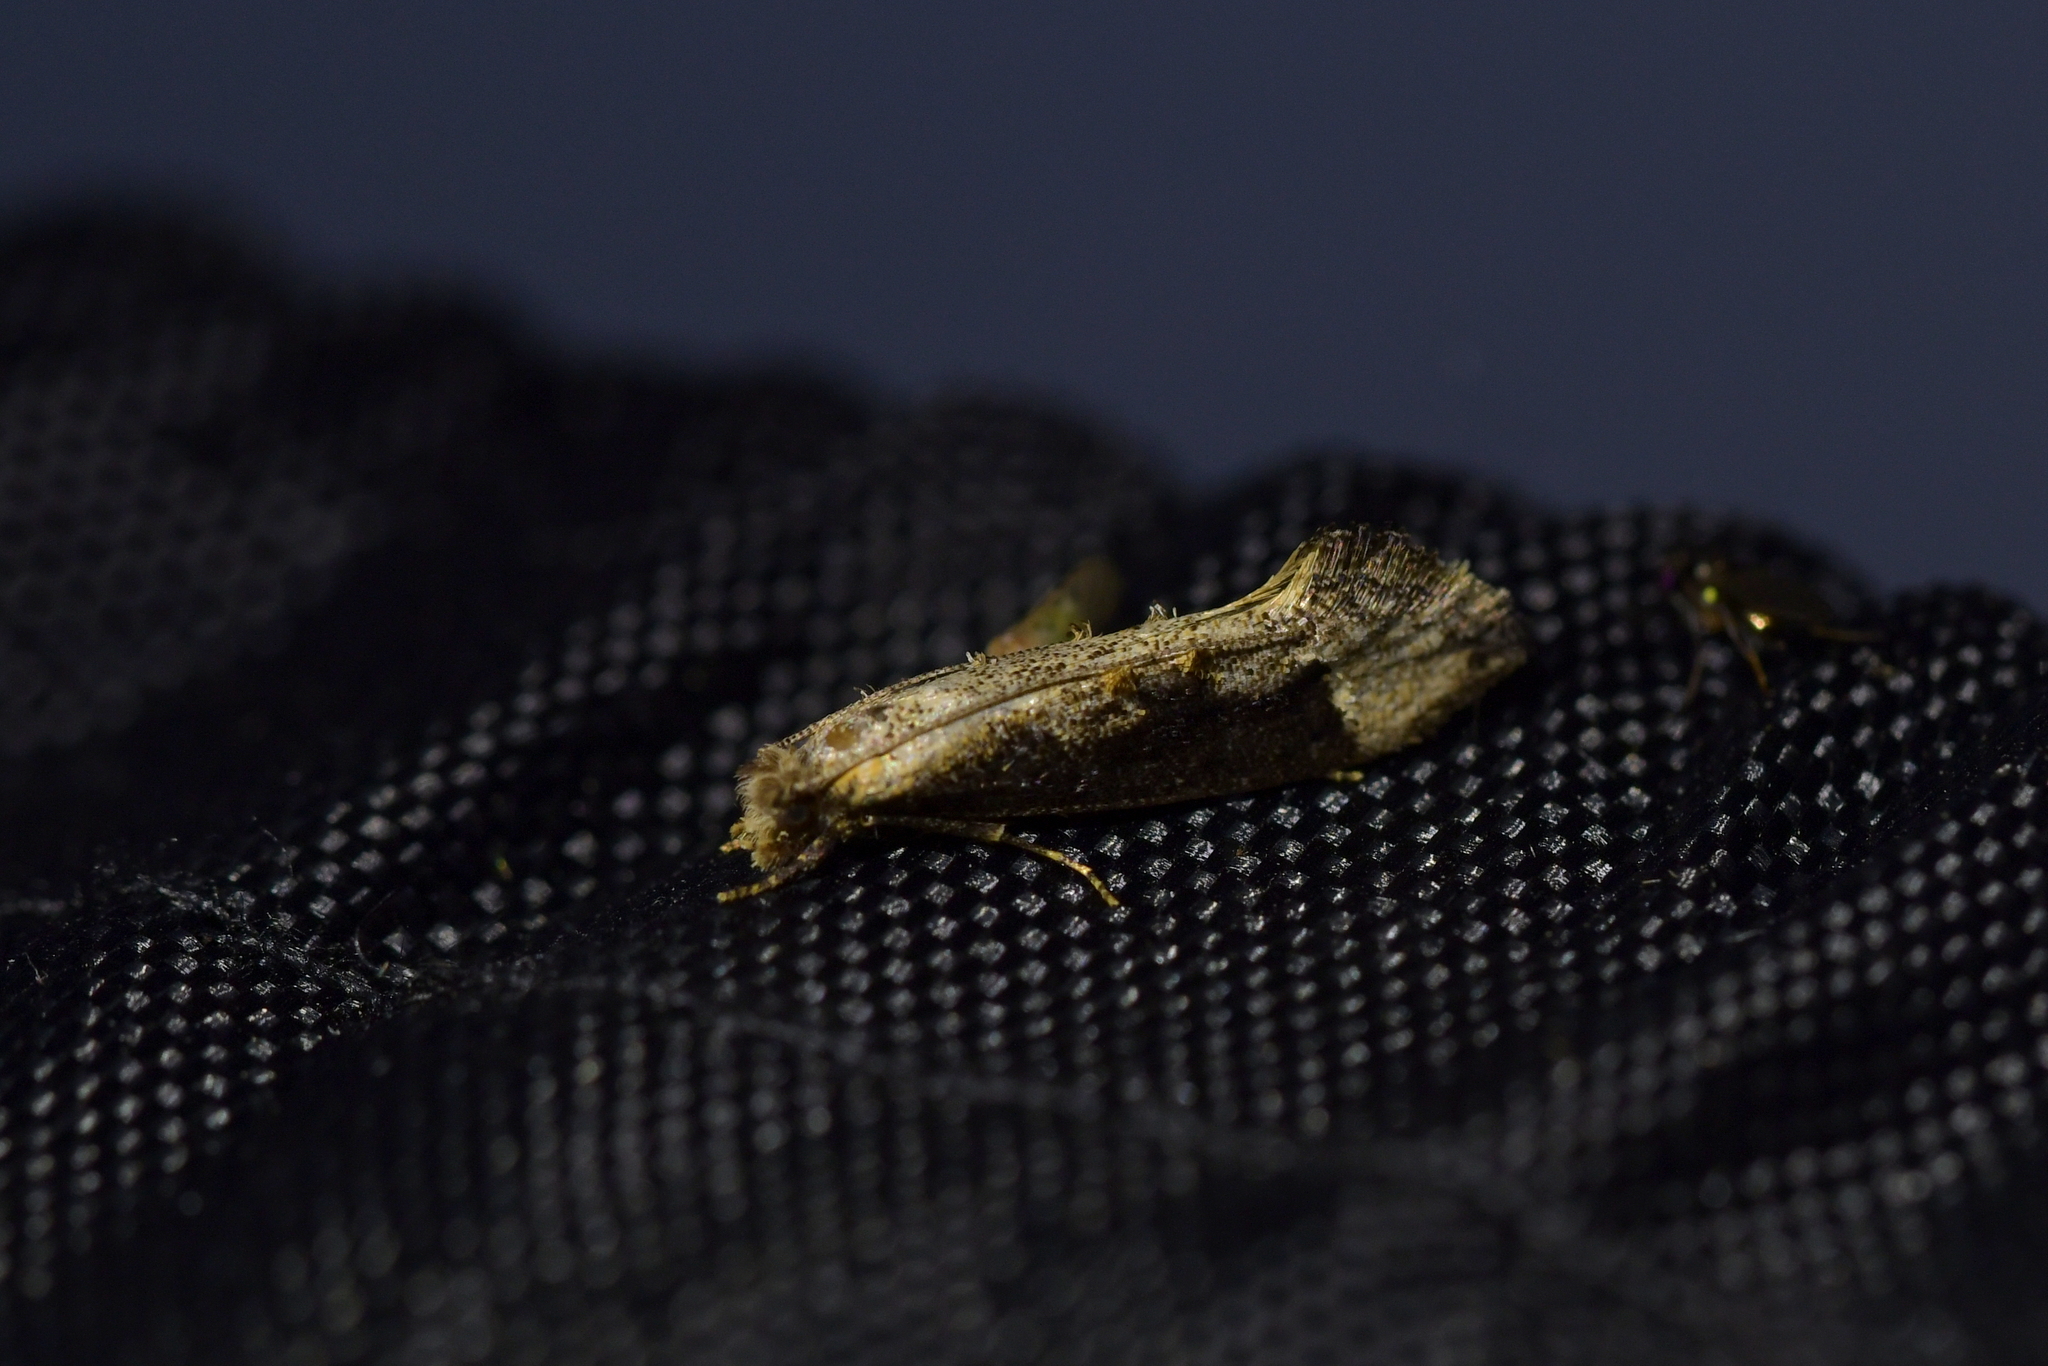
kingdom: Animalia
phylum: Arthropoda
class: Insecta
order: Lepidoptera
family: Tineidae
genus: Trithamnora
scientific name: Trithamnora certella
